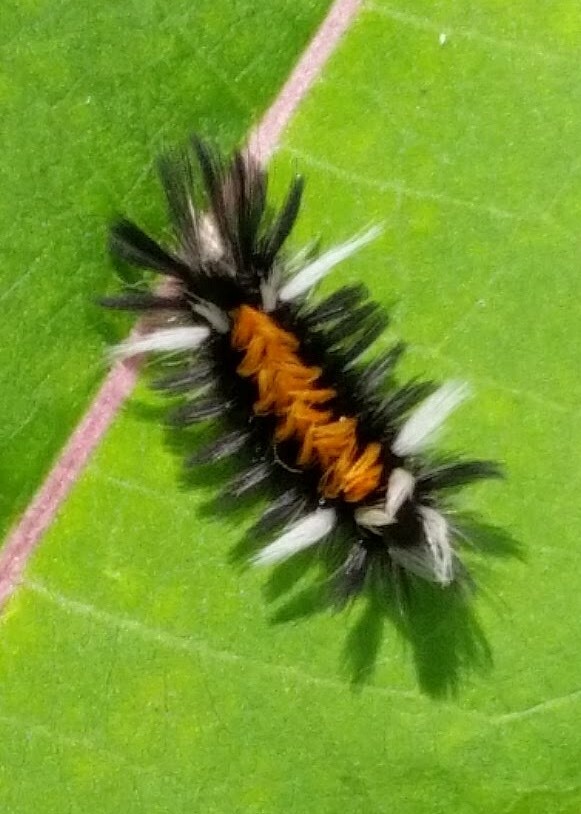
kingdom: Animalia
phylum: Arthropoda
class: Insecta
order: Lepidoptera
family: Erebidae
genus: Euchaetes
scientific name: Euchaetes egle
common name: Milkweed tussock moth
